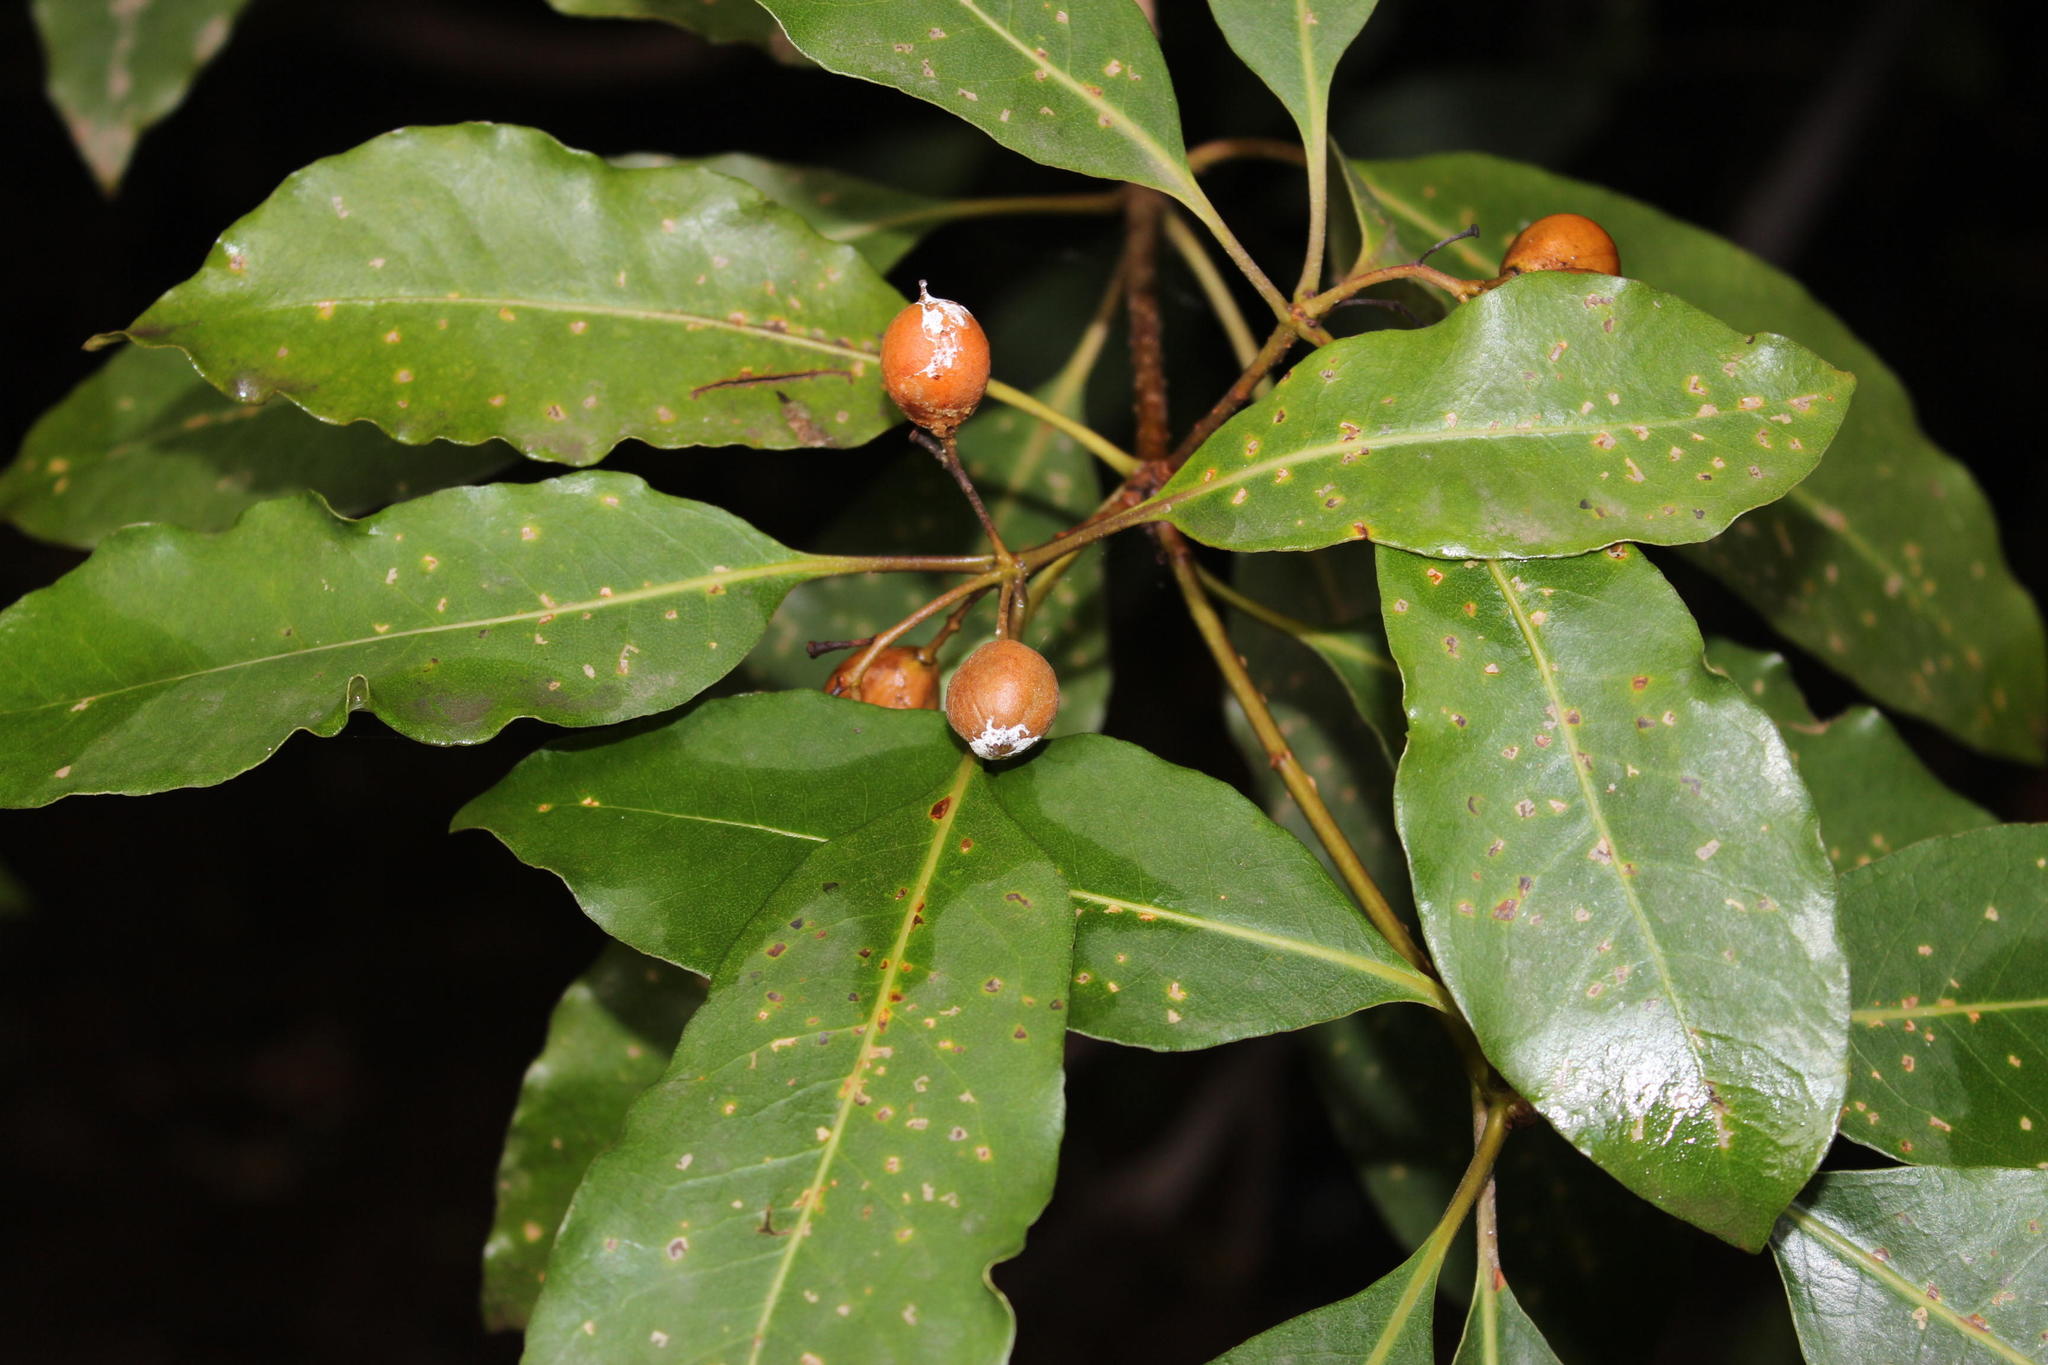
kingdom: Plantae
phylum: Tracheophyta
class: Magnoliopsida
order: Apiales
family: Pittosporaceae
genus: Pittosporum
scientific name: Pittosporum undulatum
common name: Australian cheesewood
